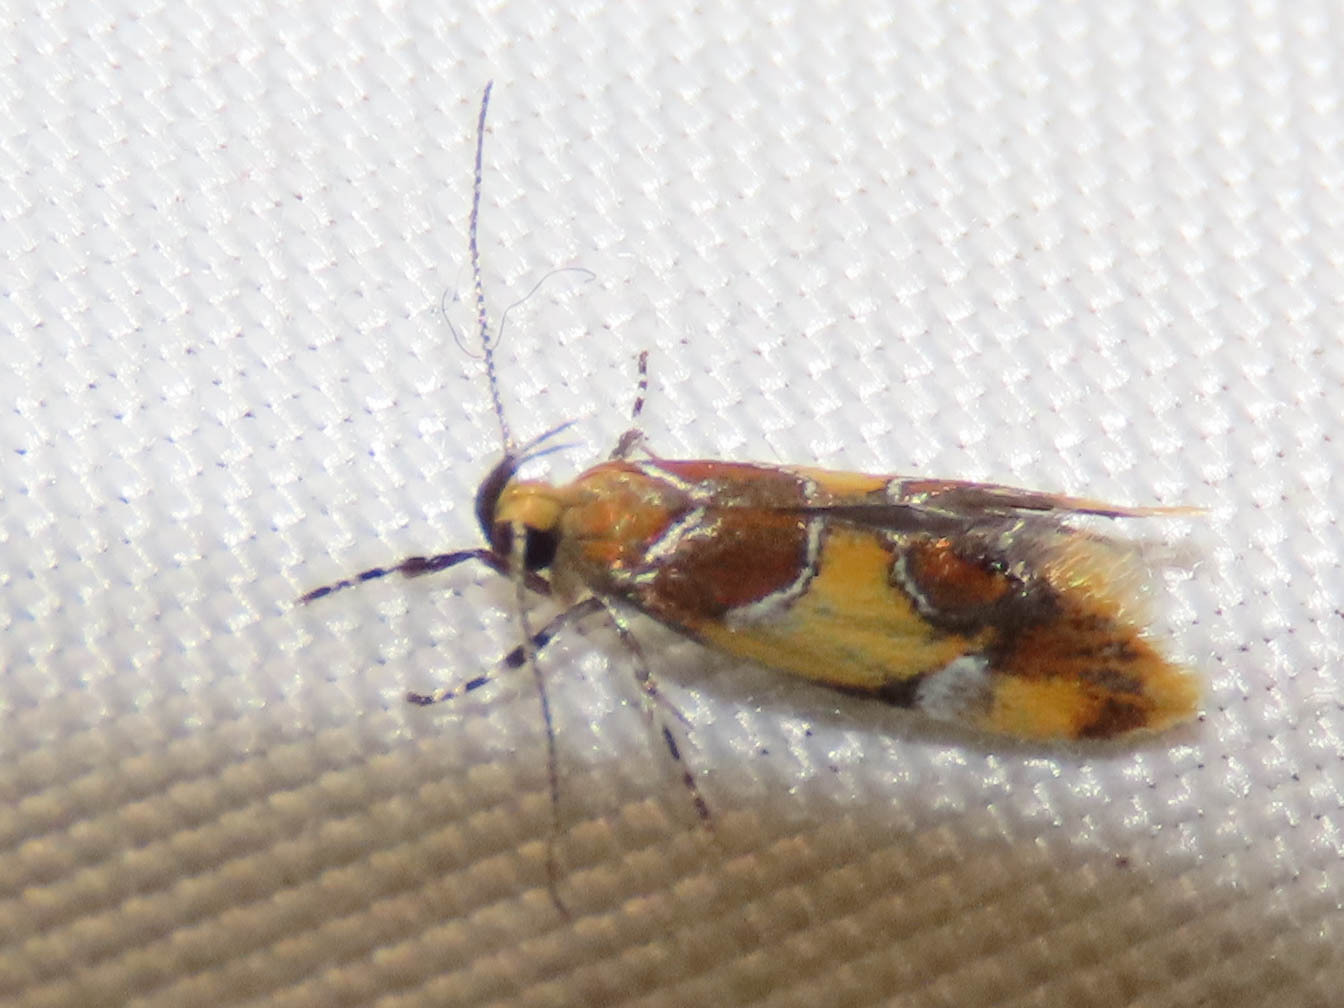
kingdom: Animalia
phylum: Arthropoda
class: Insecta
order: Lepidoptera
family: Oecophoridae
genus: Callima
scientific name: Callima argenticinctella
